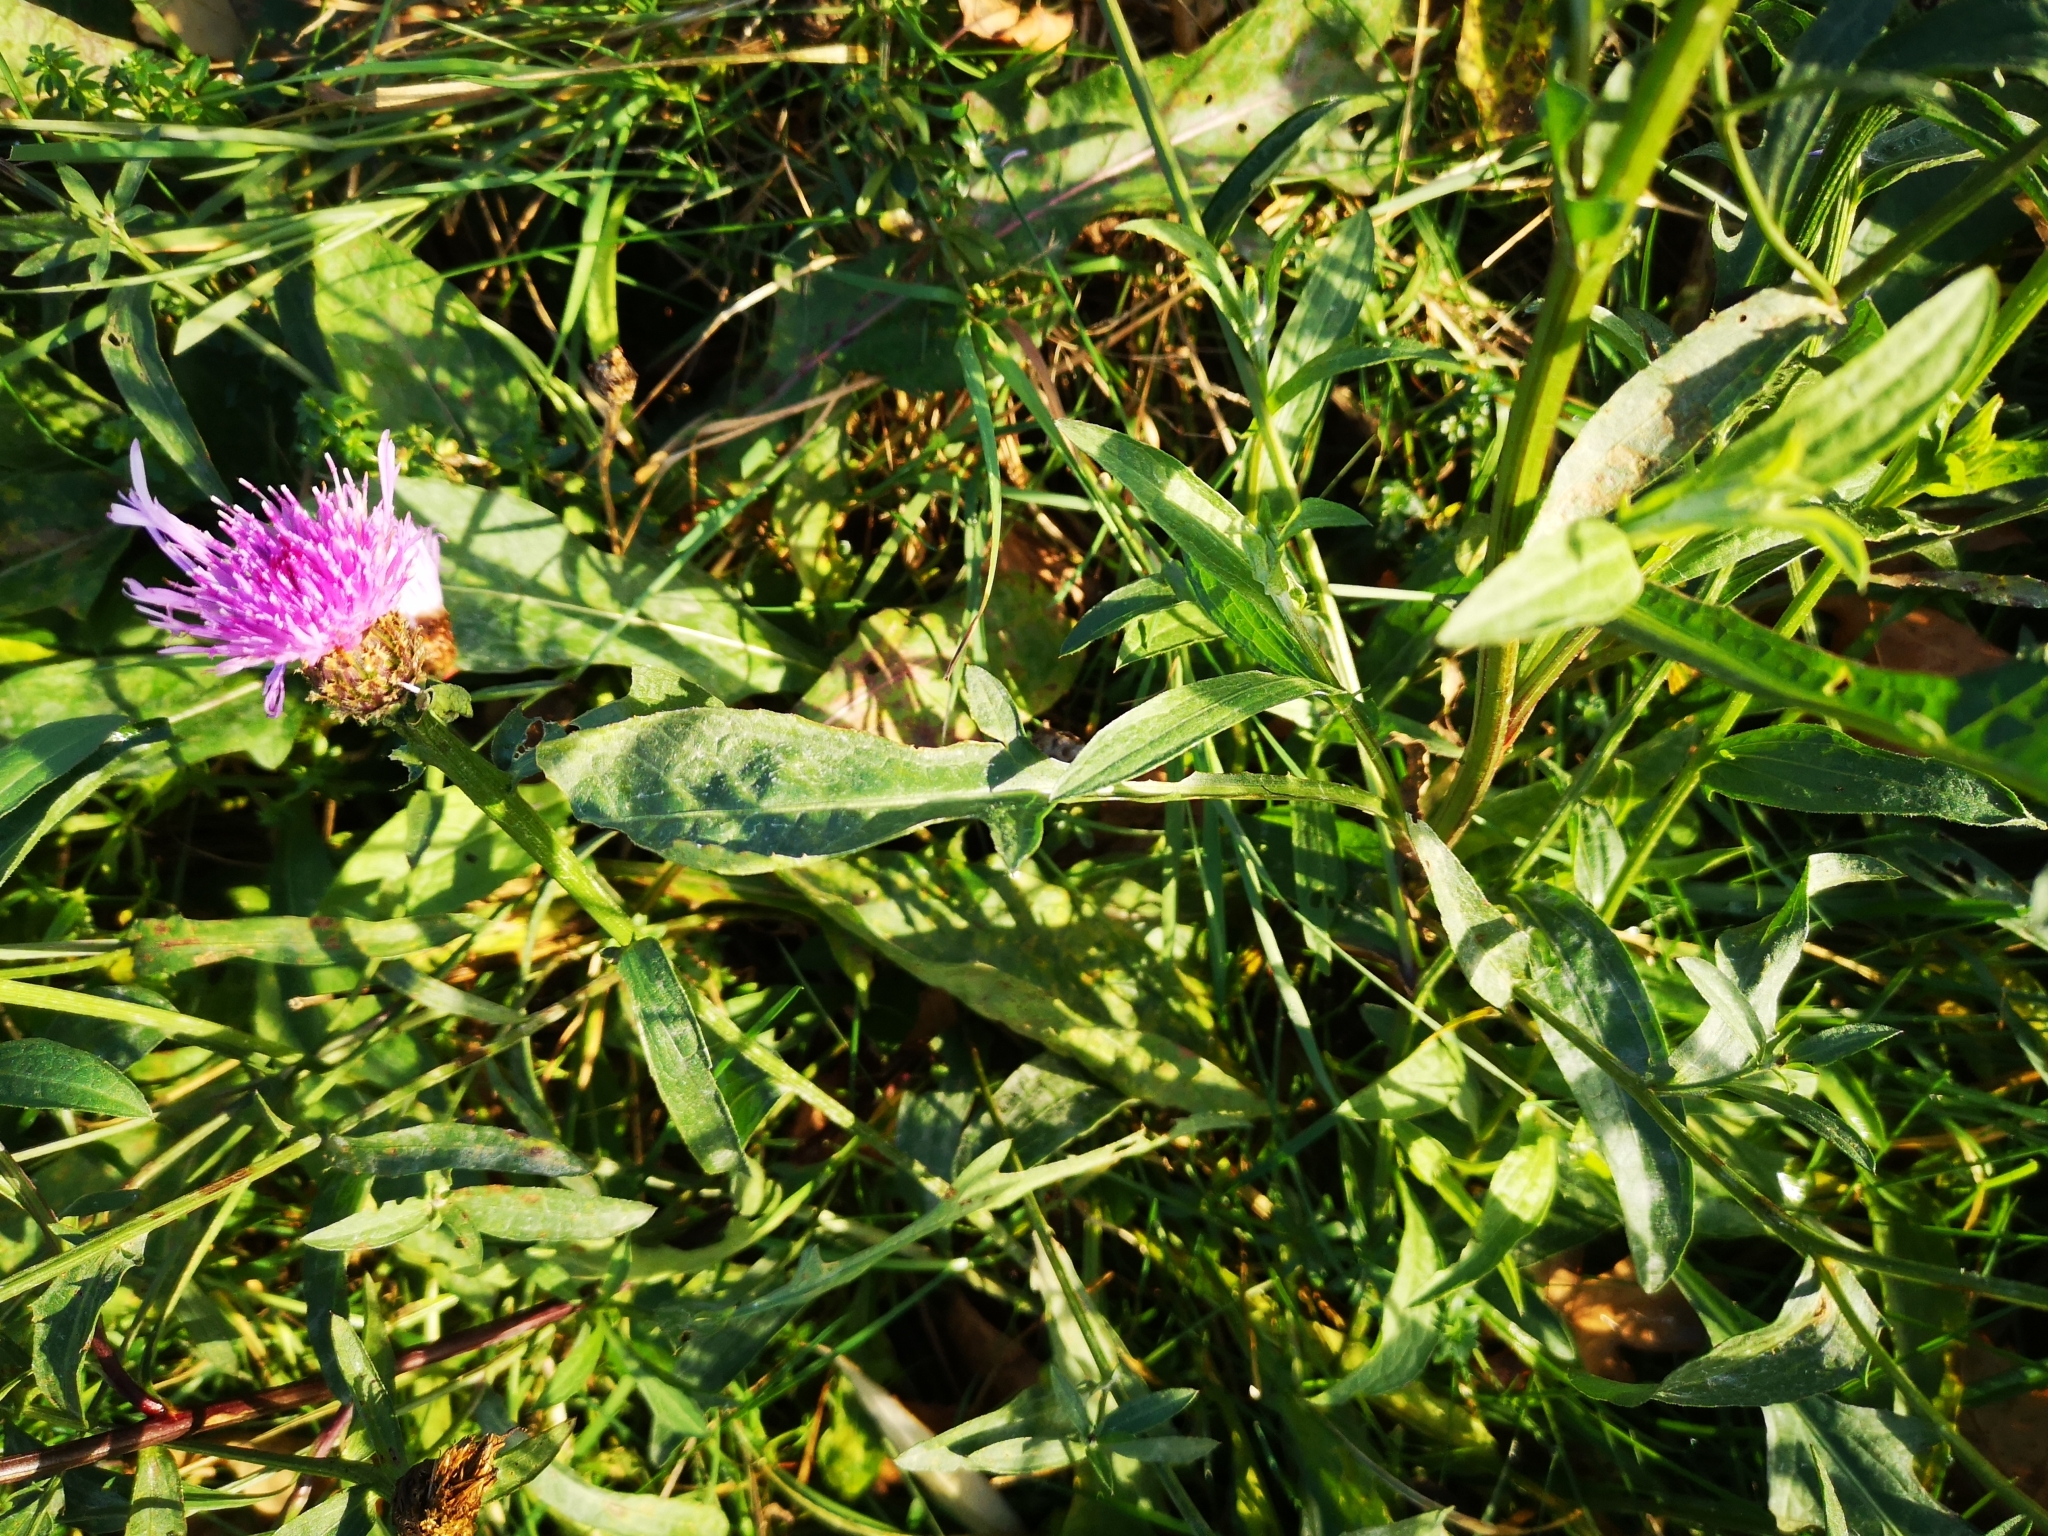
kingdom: Plantae
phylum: Tracheophyta
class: Magnoliopsida
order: Asterales
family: Asteraceae
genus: Centaurea
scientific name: Centaurea jacea
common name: Brown knapweed
